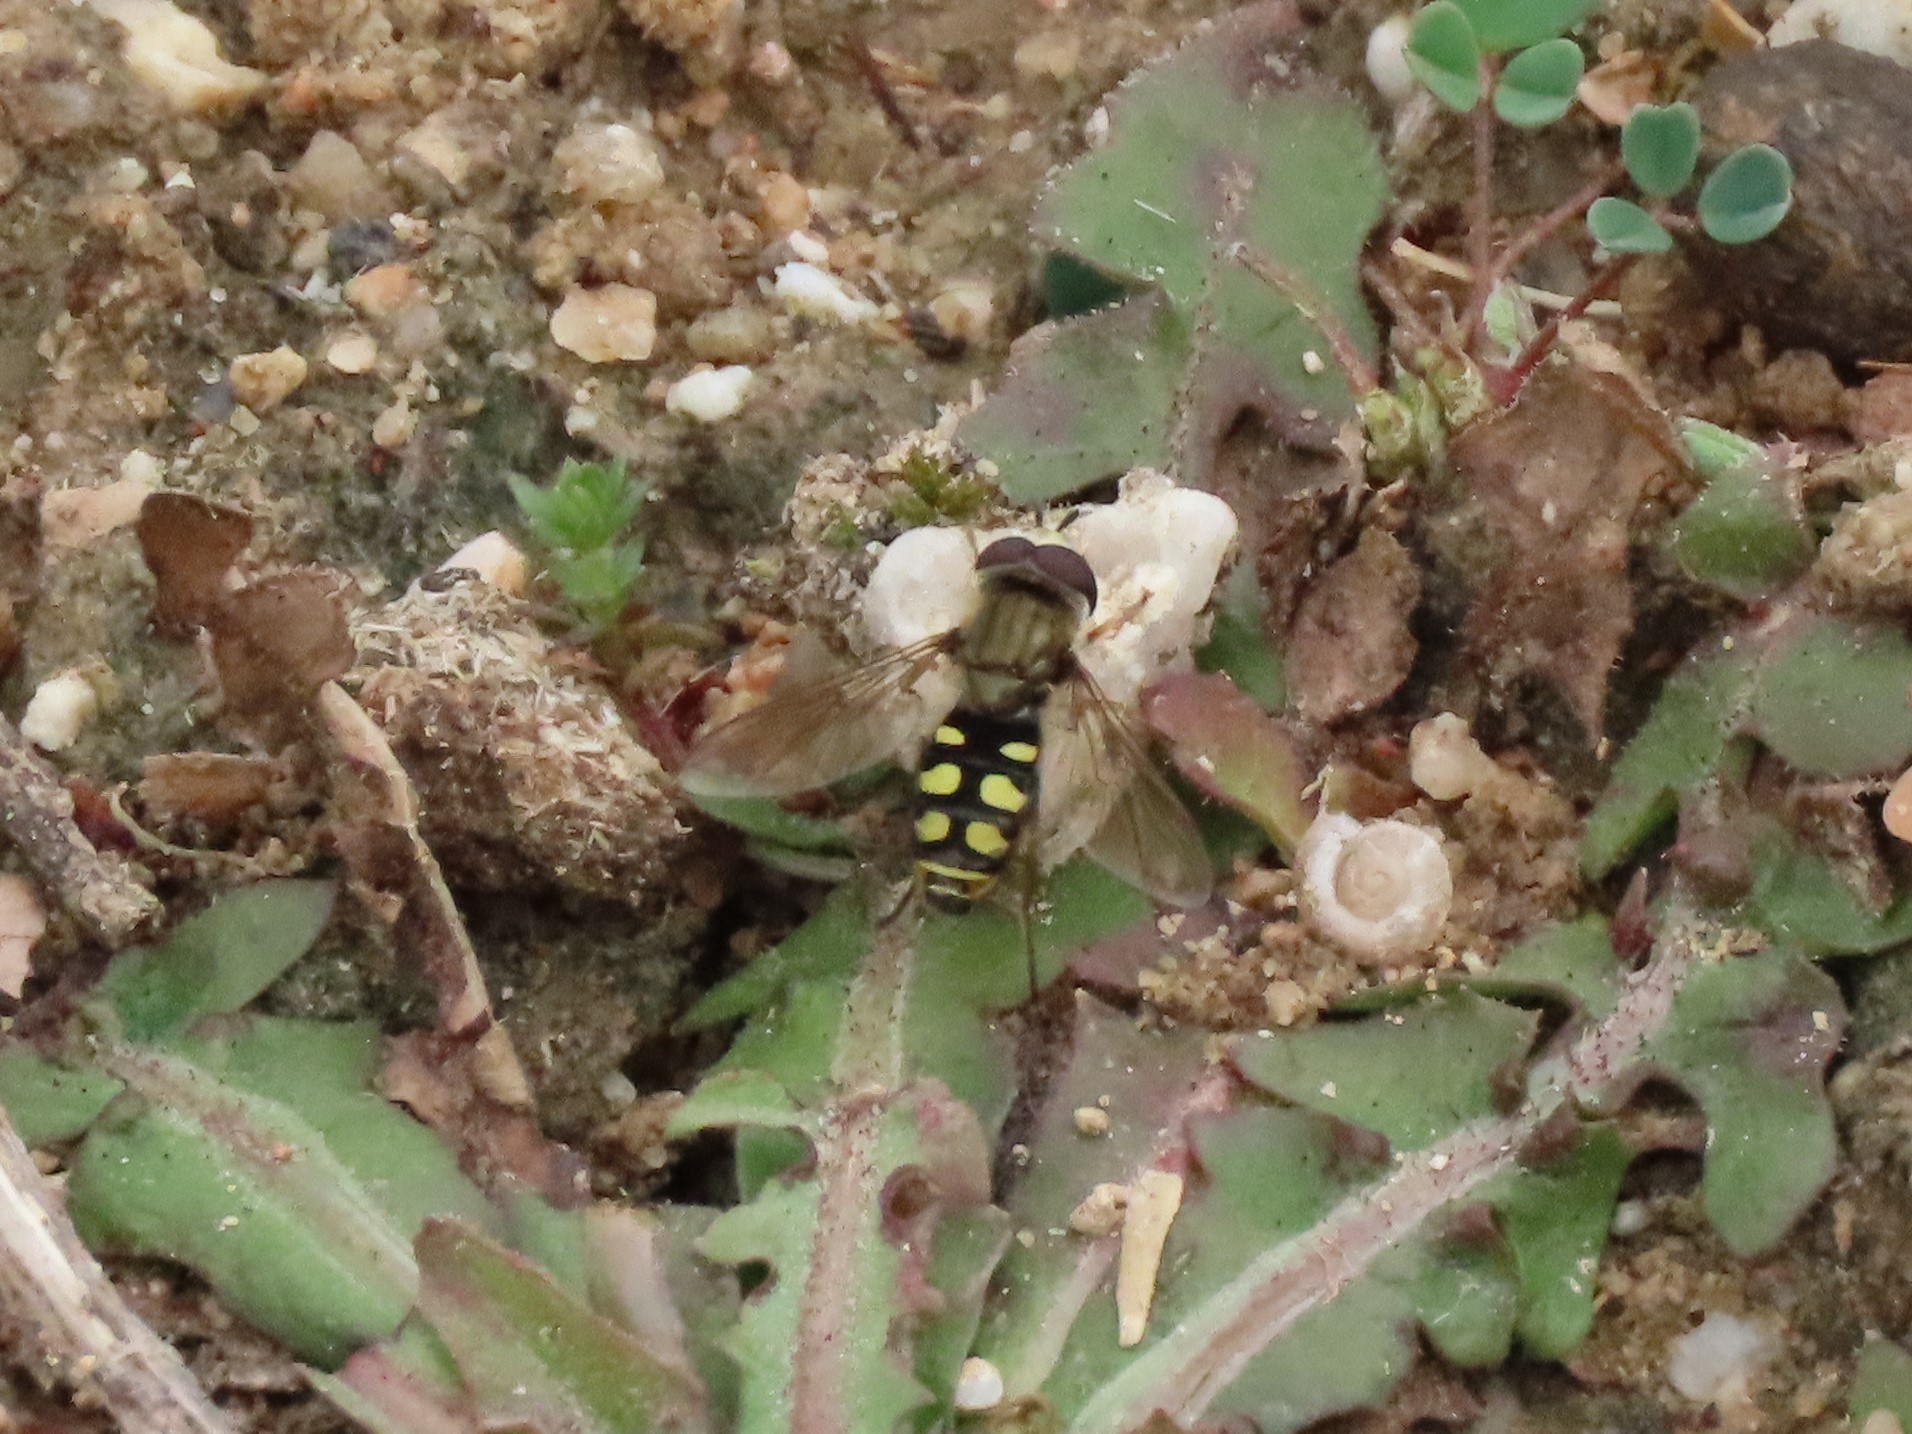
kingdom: Animalia
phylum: Arthropoda
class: Insecta
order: Diptera
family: Syrphidae
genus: Eupeodes
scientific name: Eupeodes corollae
